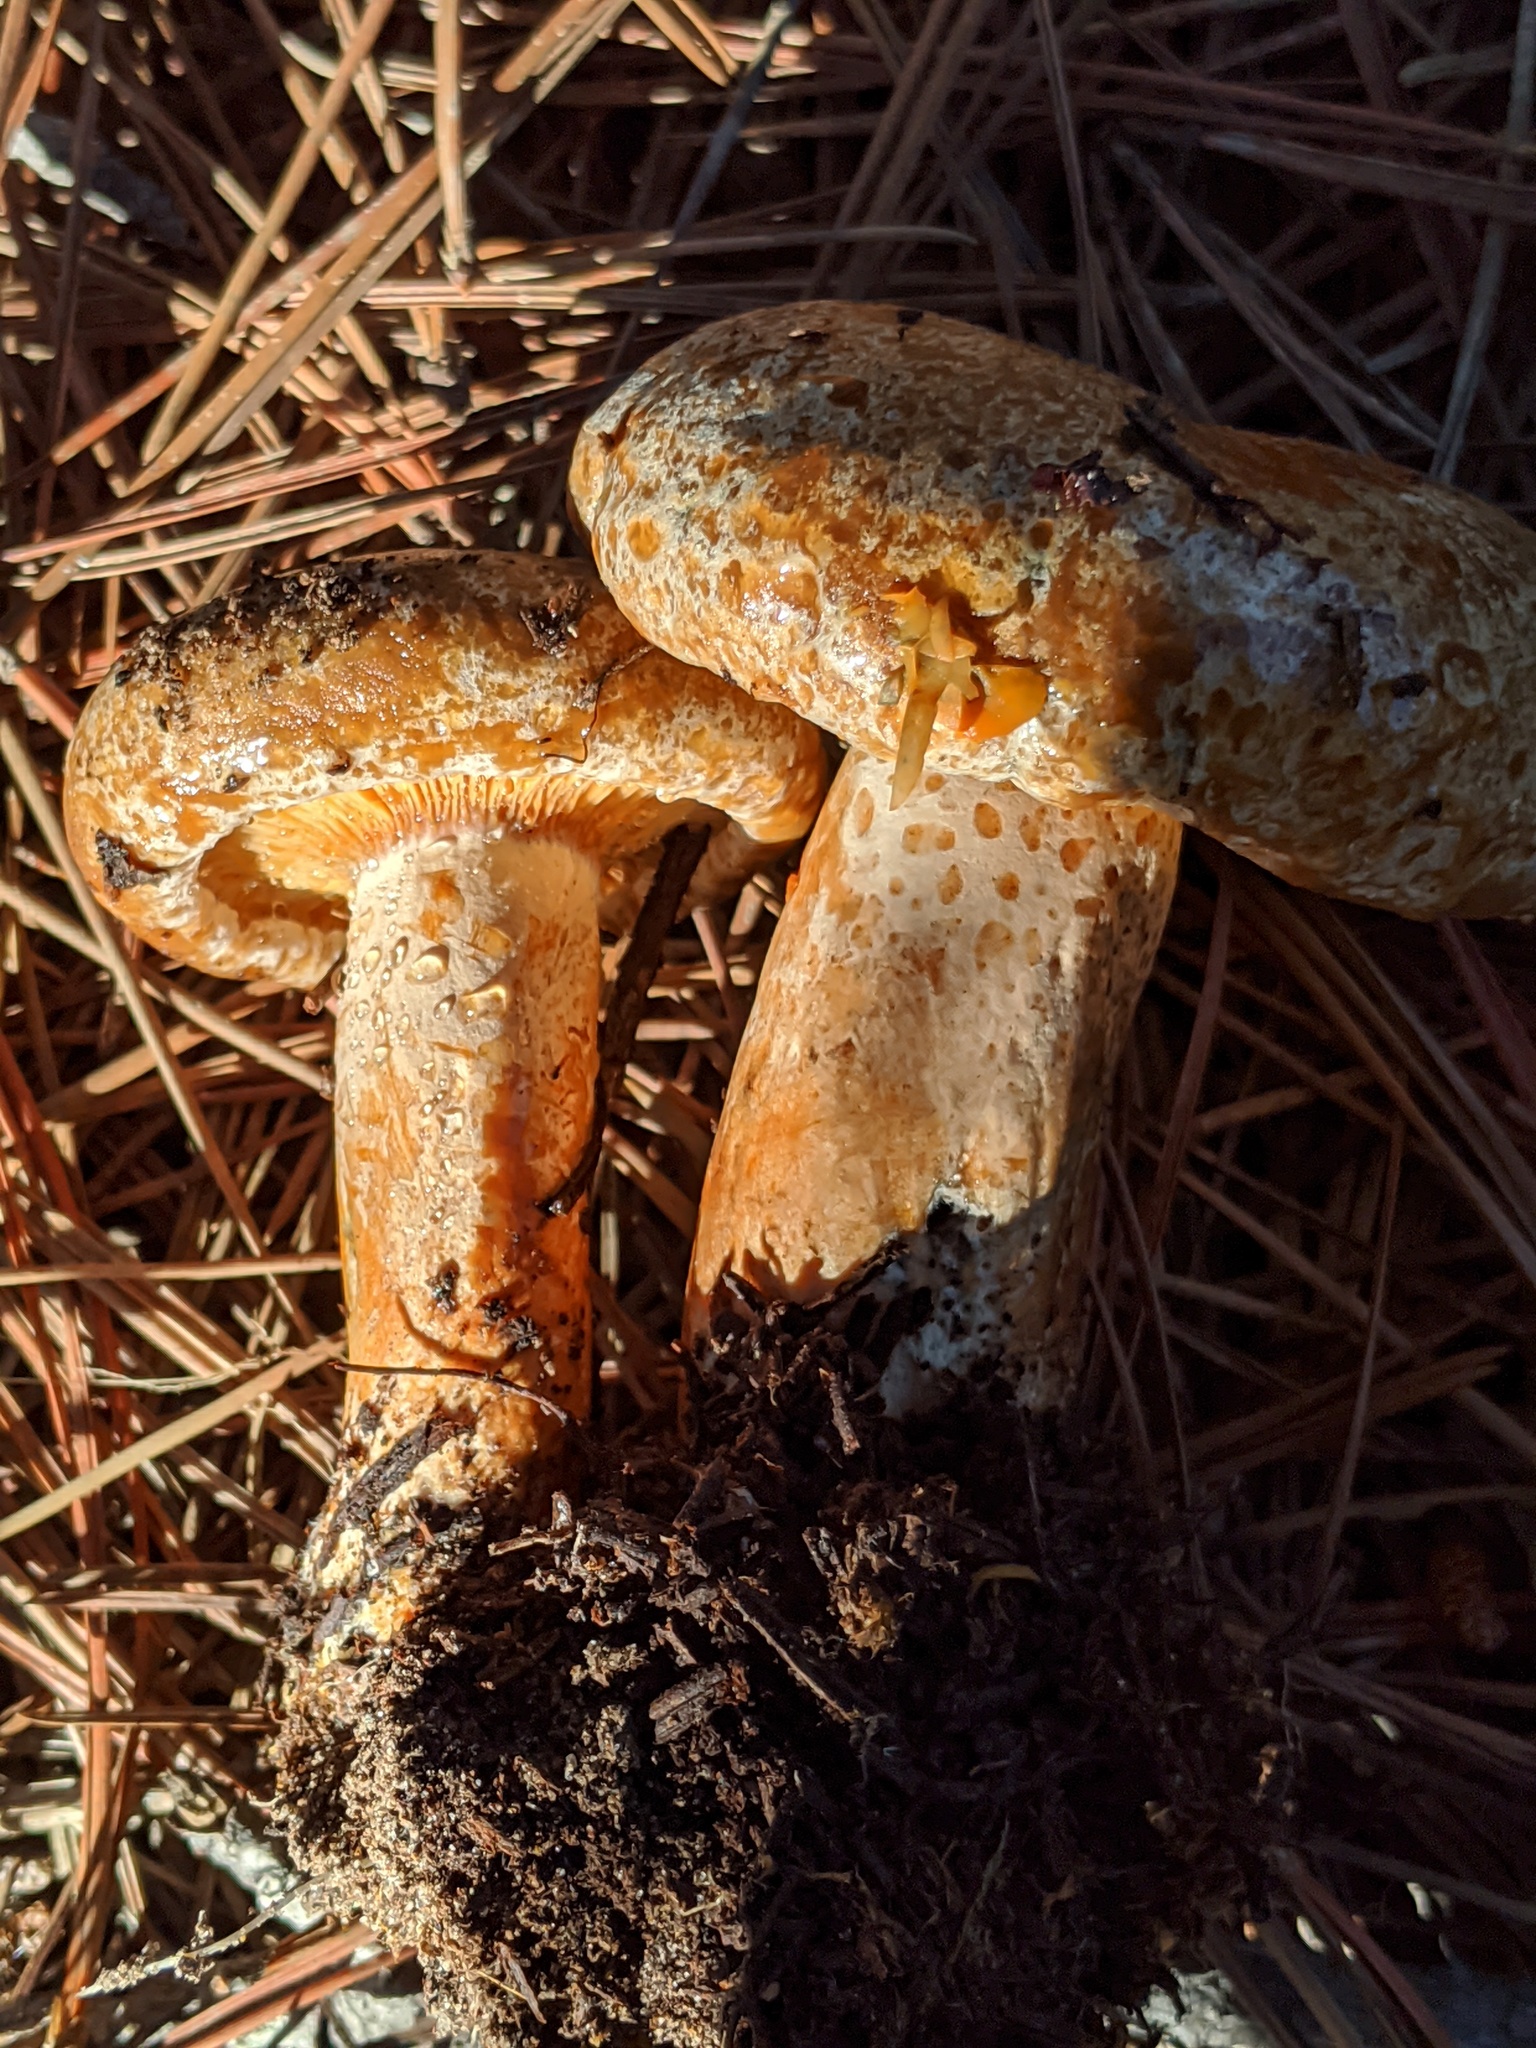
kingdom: Fungi
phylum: Basidiomycota
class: Agaricomycetes
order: Russulales
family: Russulaceae
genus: Lactarius
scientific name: Lactarius deliciosus
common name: Saffron milk-cap
